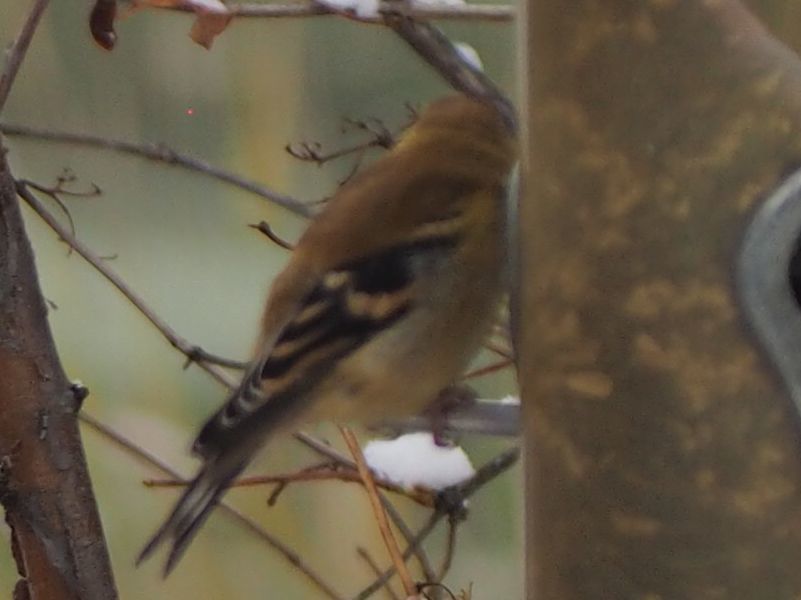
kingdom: Animalia
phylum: Chordata
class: Aves
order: Passeriformes
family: Fringillidae
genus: Spinus
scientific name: Spinus tristis
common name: American goldfinch
